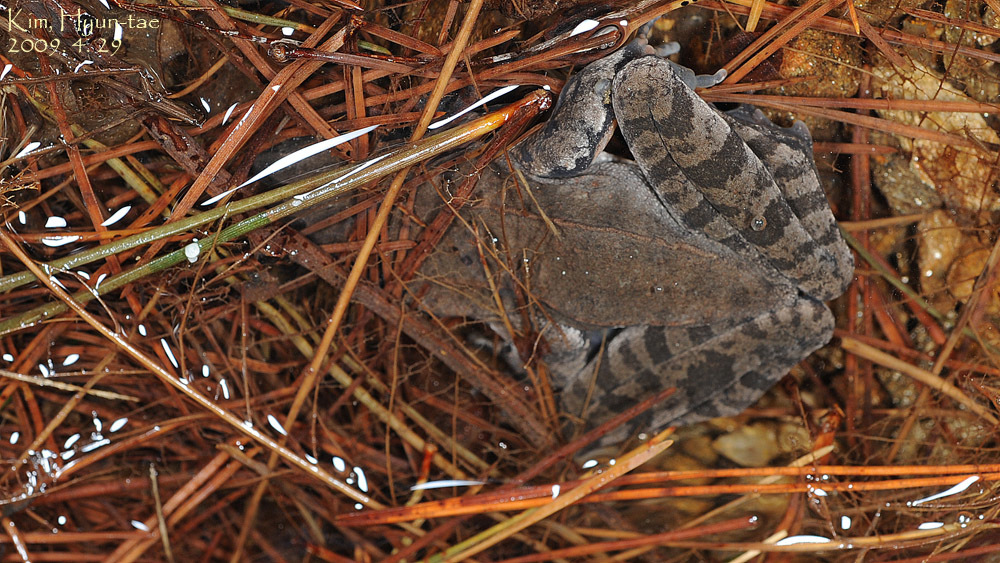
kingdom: Animalia
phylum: Chordata
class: Amphibia
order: Anura
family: Ranidae
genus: Rana
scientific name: Rana uenoi
